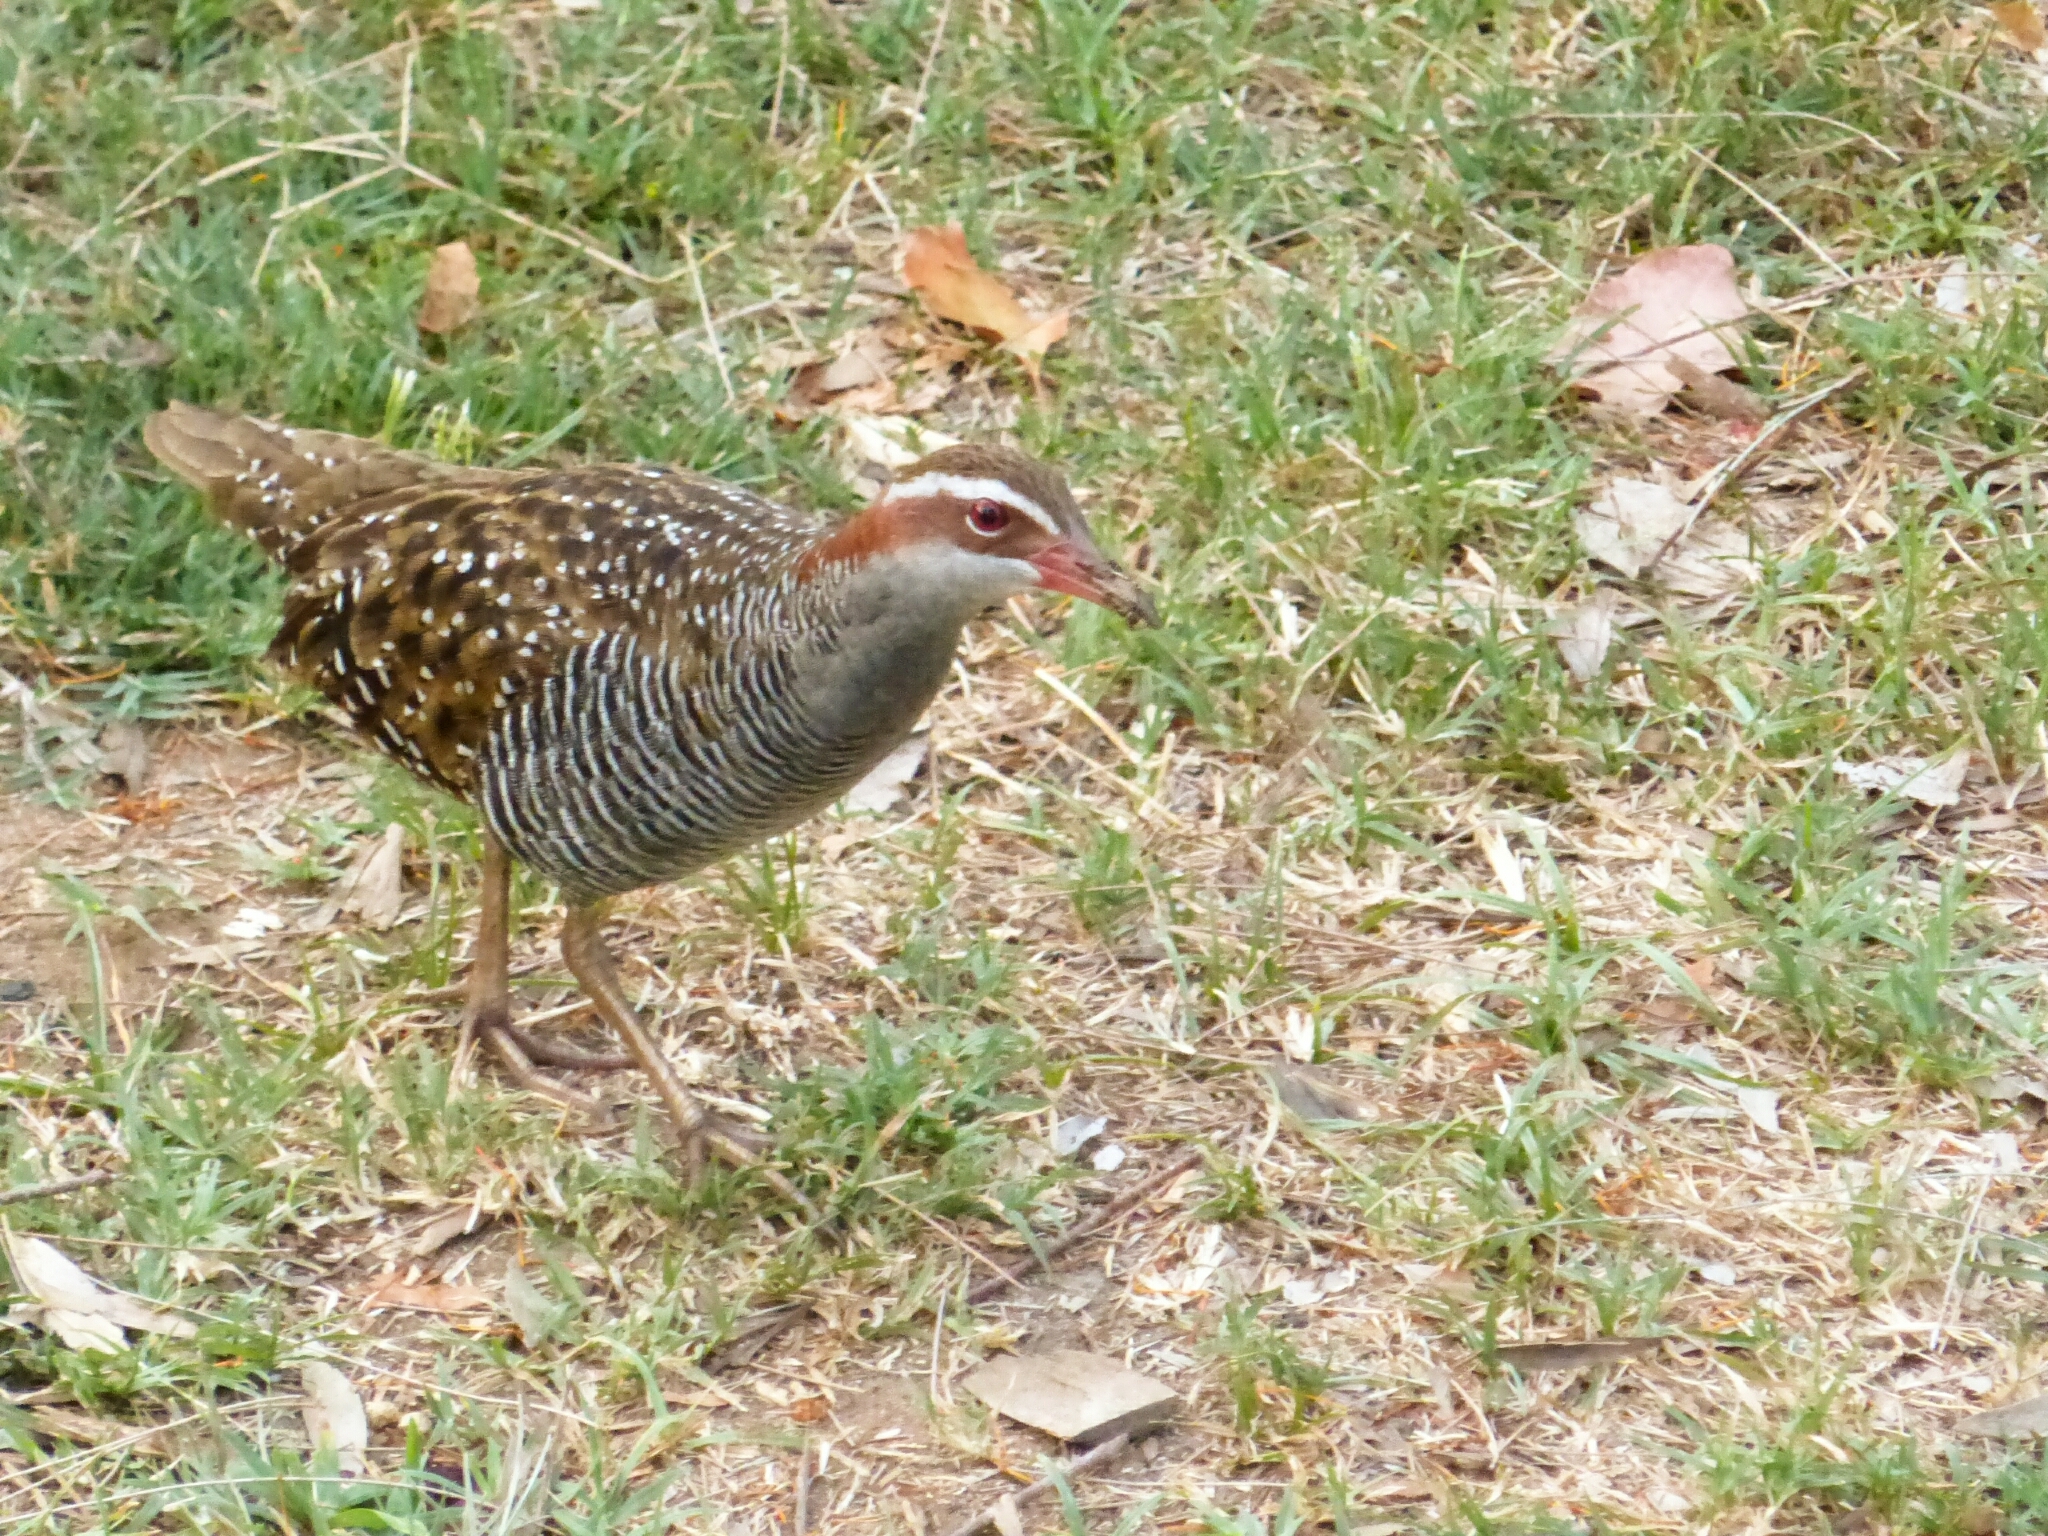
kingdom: Animalia
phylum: Chordata
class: Aves
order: Gruiformes
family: Rallidae
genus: Gallirallus
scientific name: Gallirallus philippensis
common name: Buff-banded rail
